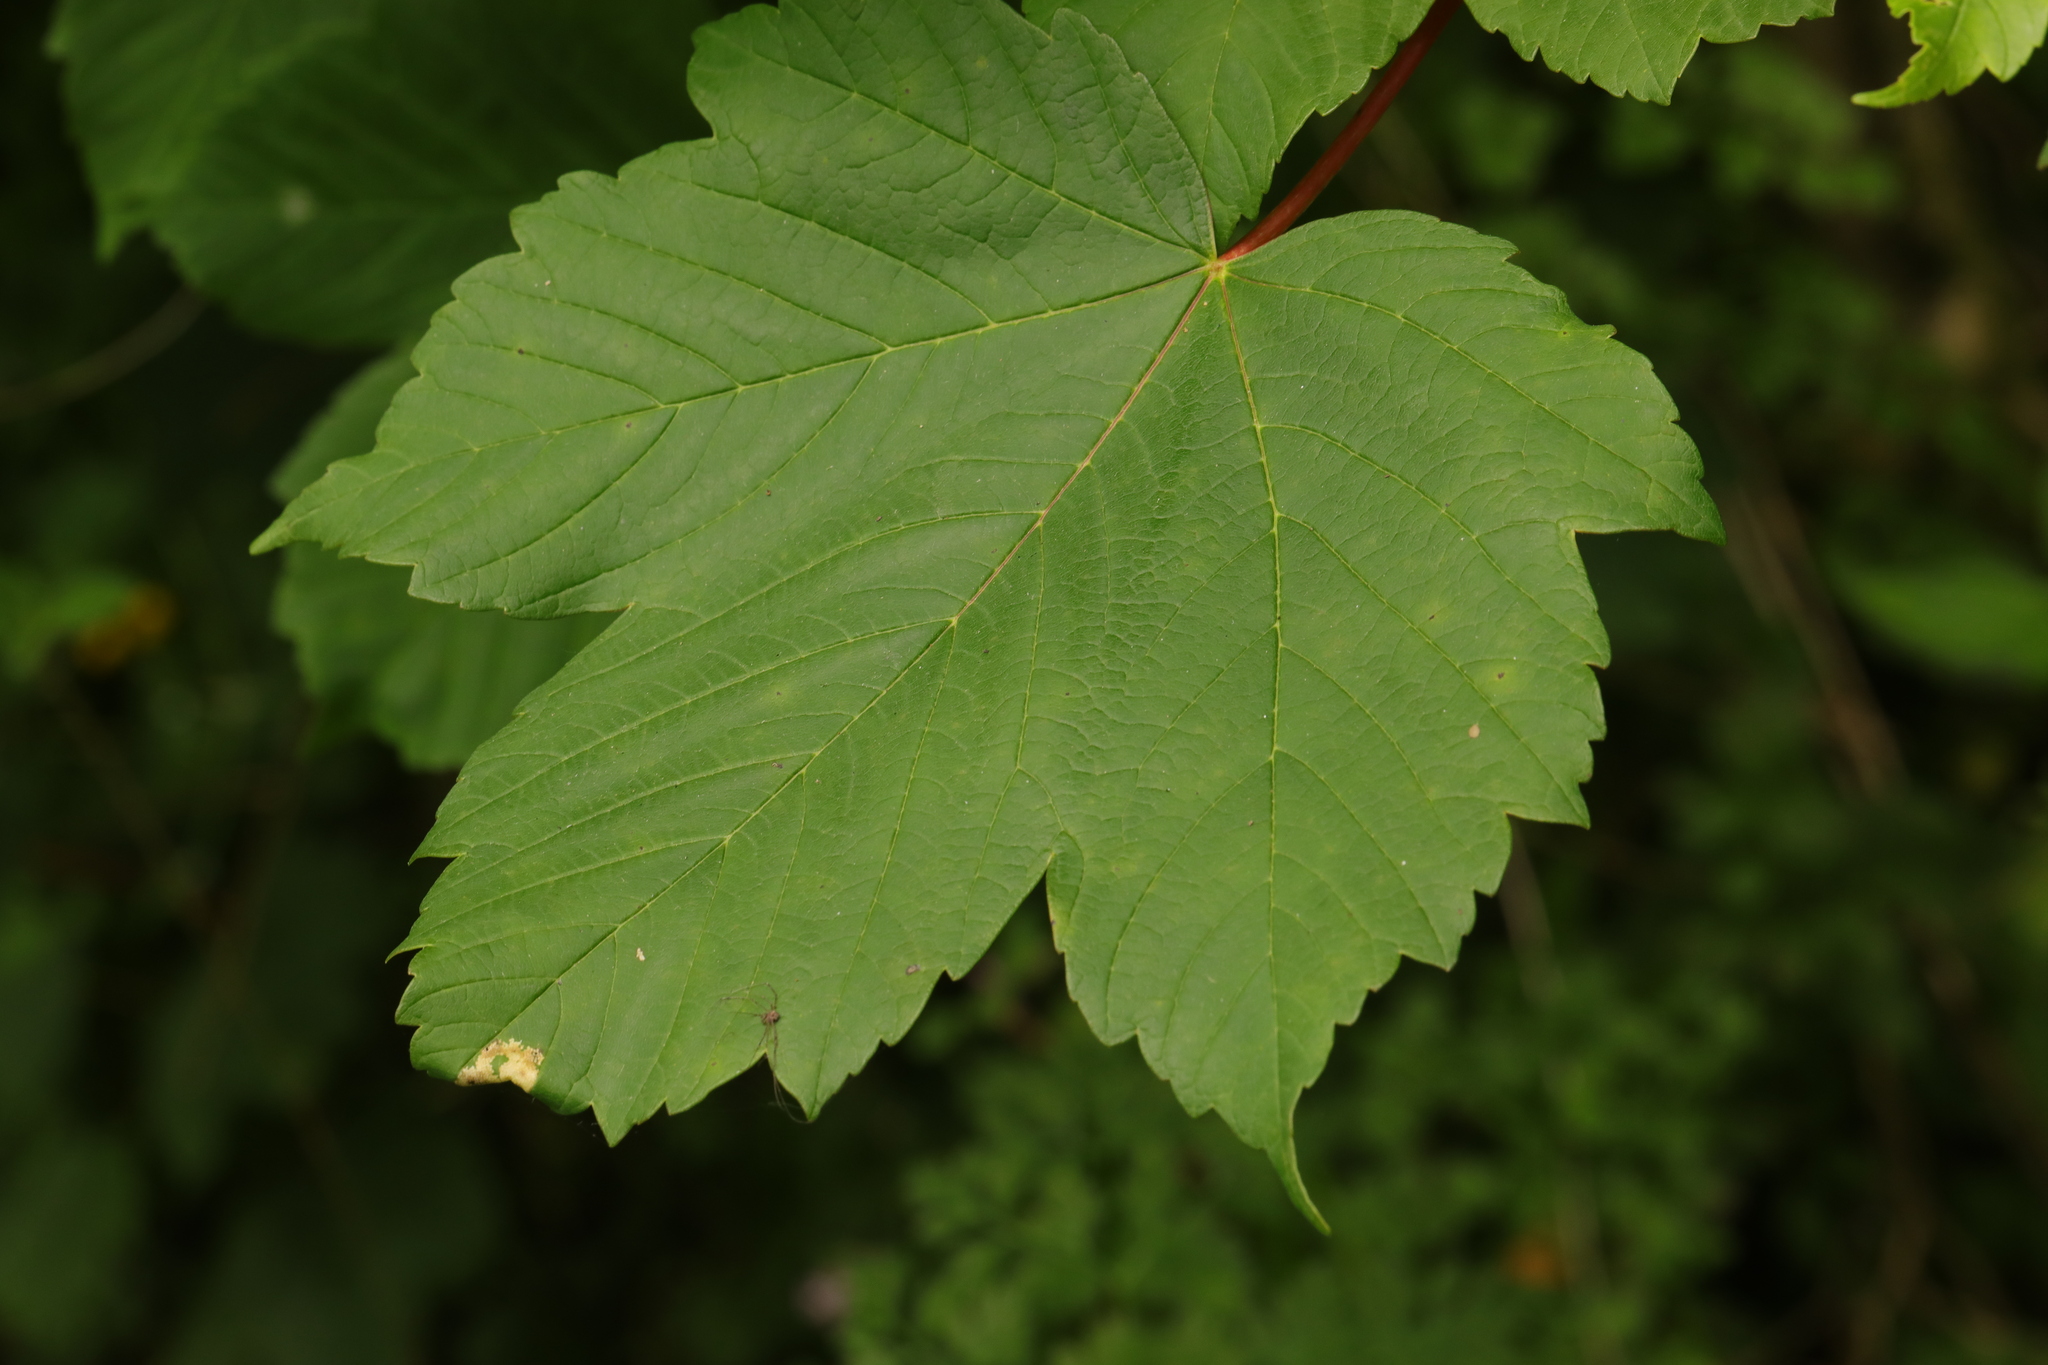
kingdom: Plantae
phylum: Tracheophyta
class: Magnoliopsida
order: Sapindales
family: Sapindaceae
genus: Acer
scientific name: Acer pseudoplatanus
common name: Sycamore
